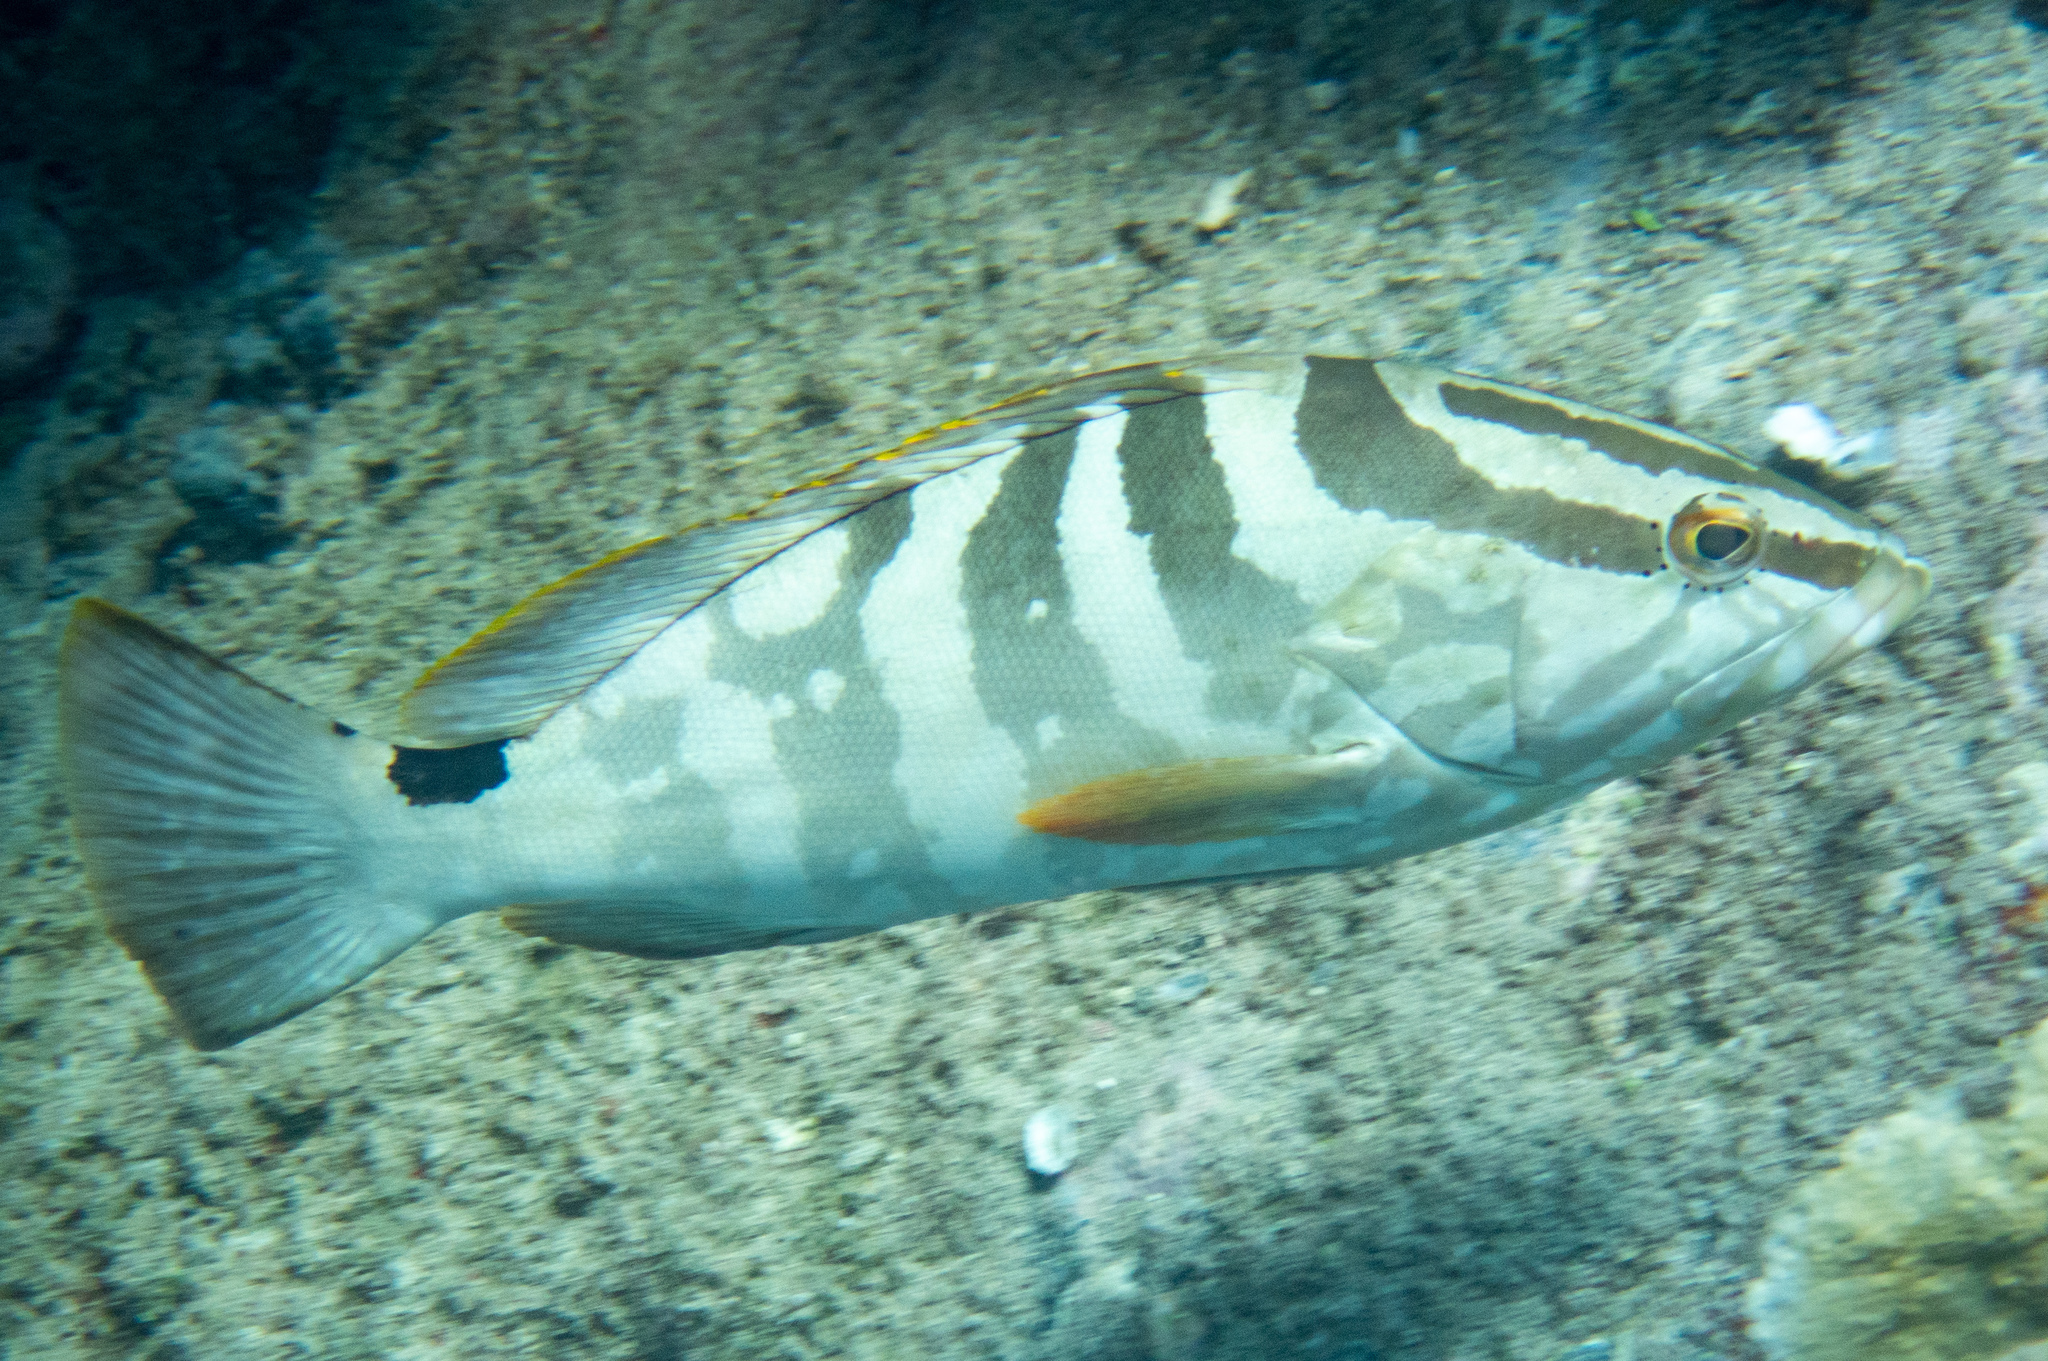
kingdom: Animalia
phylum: Chordata
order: Perciformes
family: Serranidae
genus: Epinephelus
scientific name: Epinephelus striatus
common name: Nassau grouper
